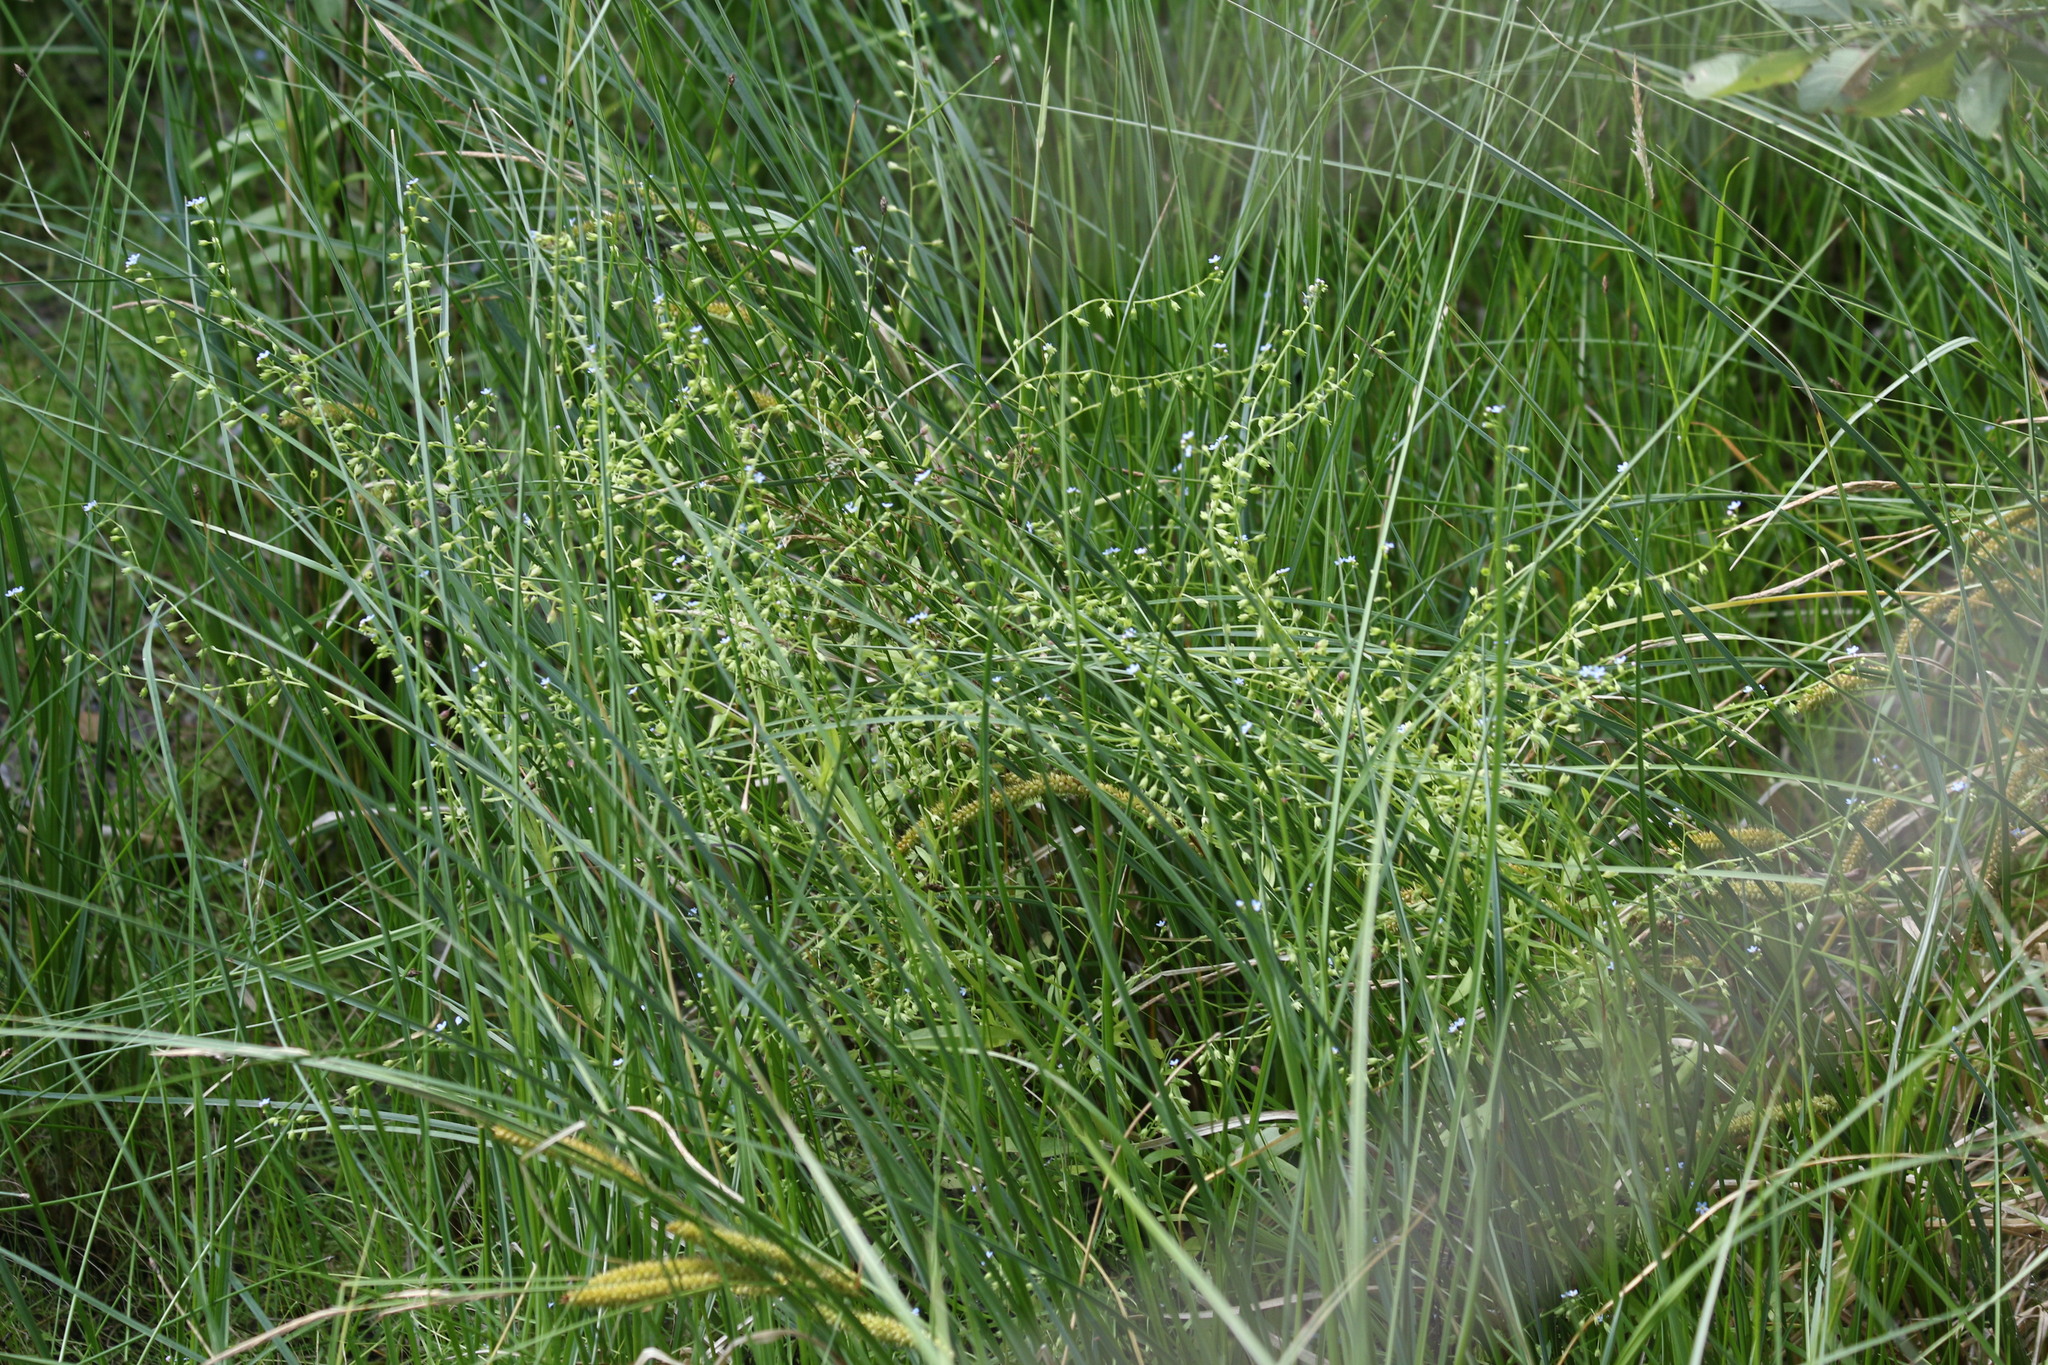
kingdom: Plantae
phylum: Tracheophyta
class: Magnoliopsida
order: Boraginales
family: Boraginaceae
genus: Myosotis
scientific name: Myosotis laxa
